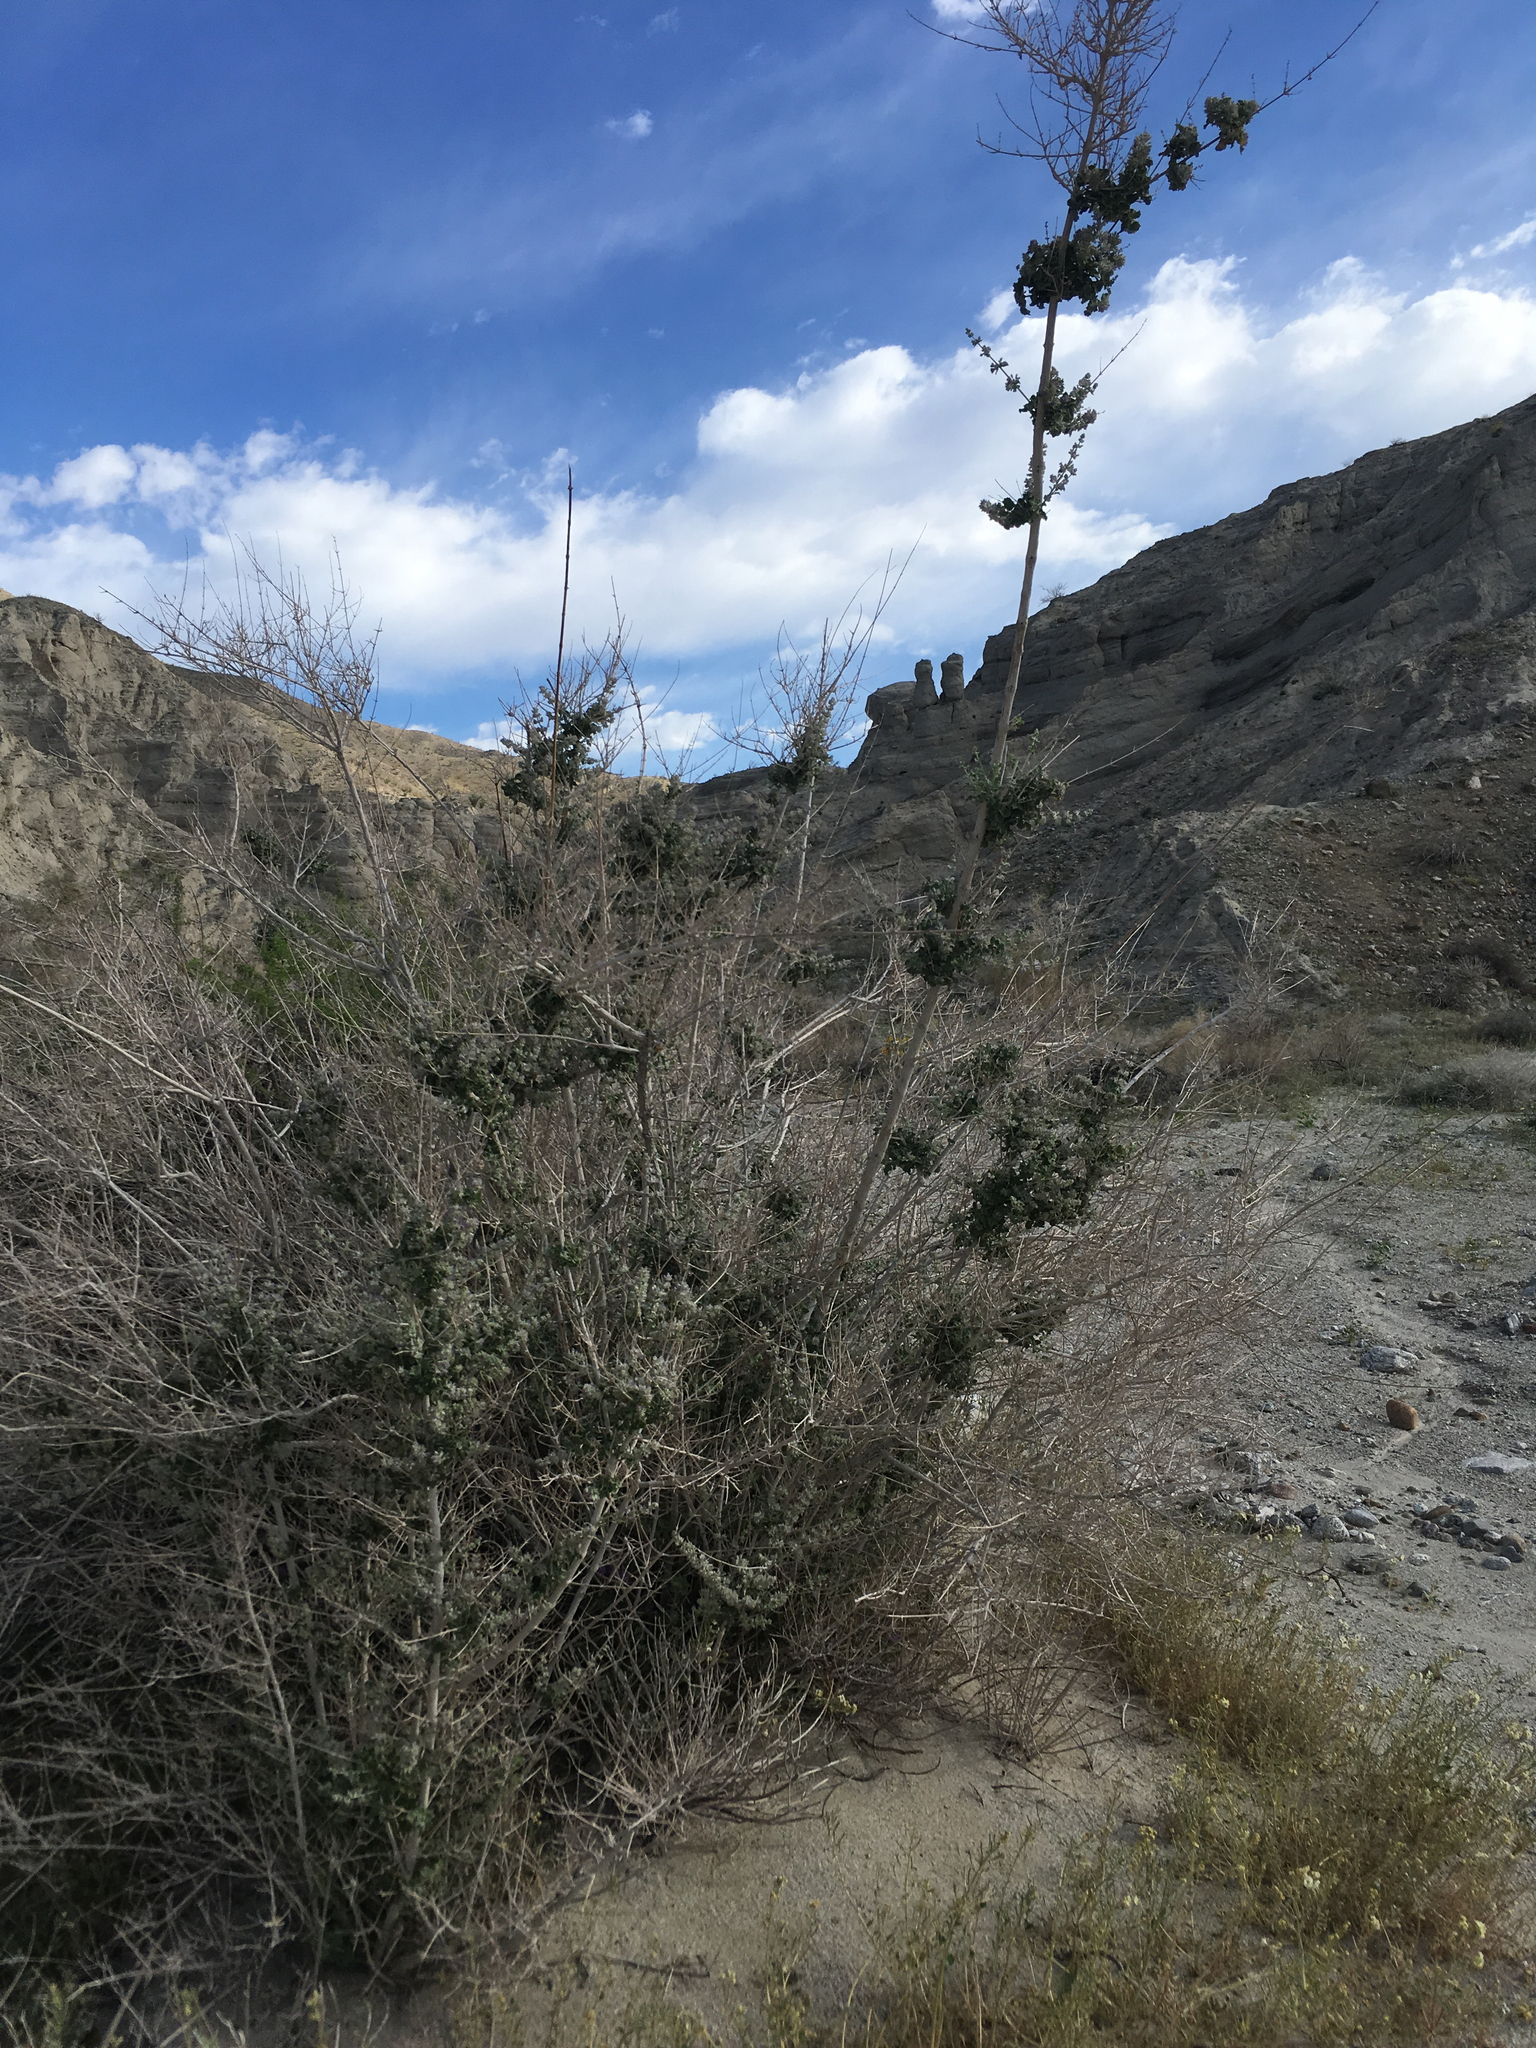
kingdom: Plantae
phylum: Tracheophyta
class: Magnoliopsida
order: Lamiales
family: Lamiaceae
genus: Condea
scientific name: Condea emoryi
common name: Chia
